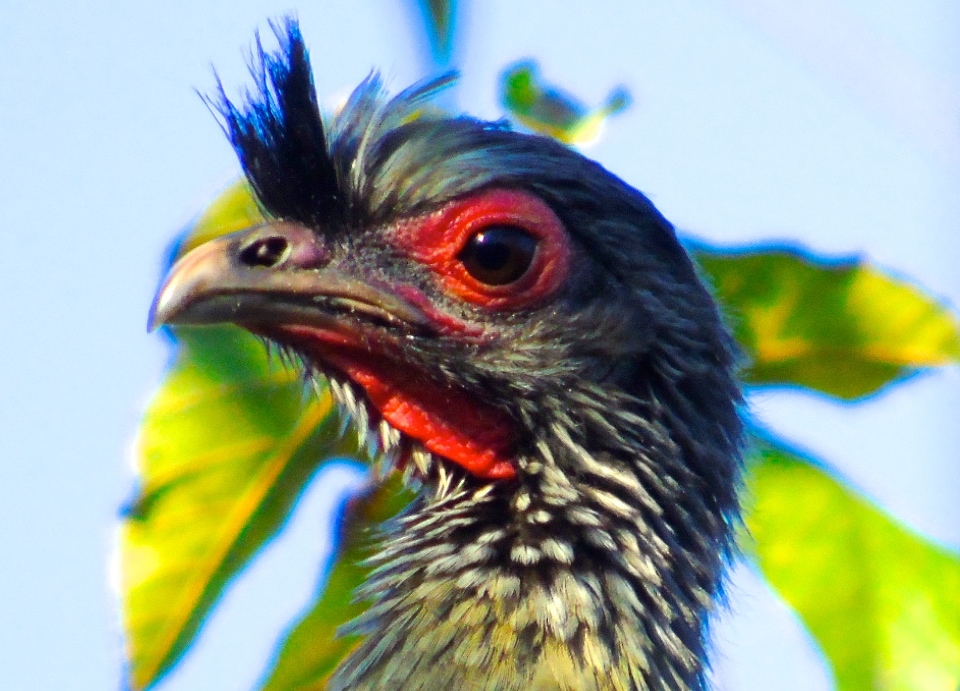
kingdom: Animalia
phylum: Chordata
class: Aves
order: Galliformes
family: Cracidae
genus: Ortalis
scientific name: Ortalis wagleri
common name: Rufous-bellied chachalaca
